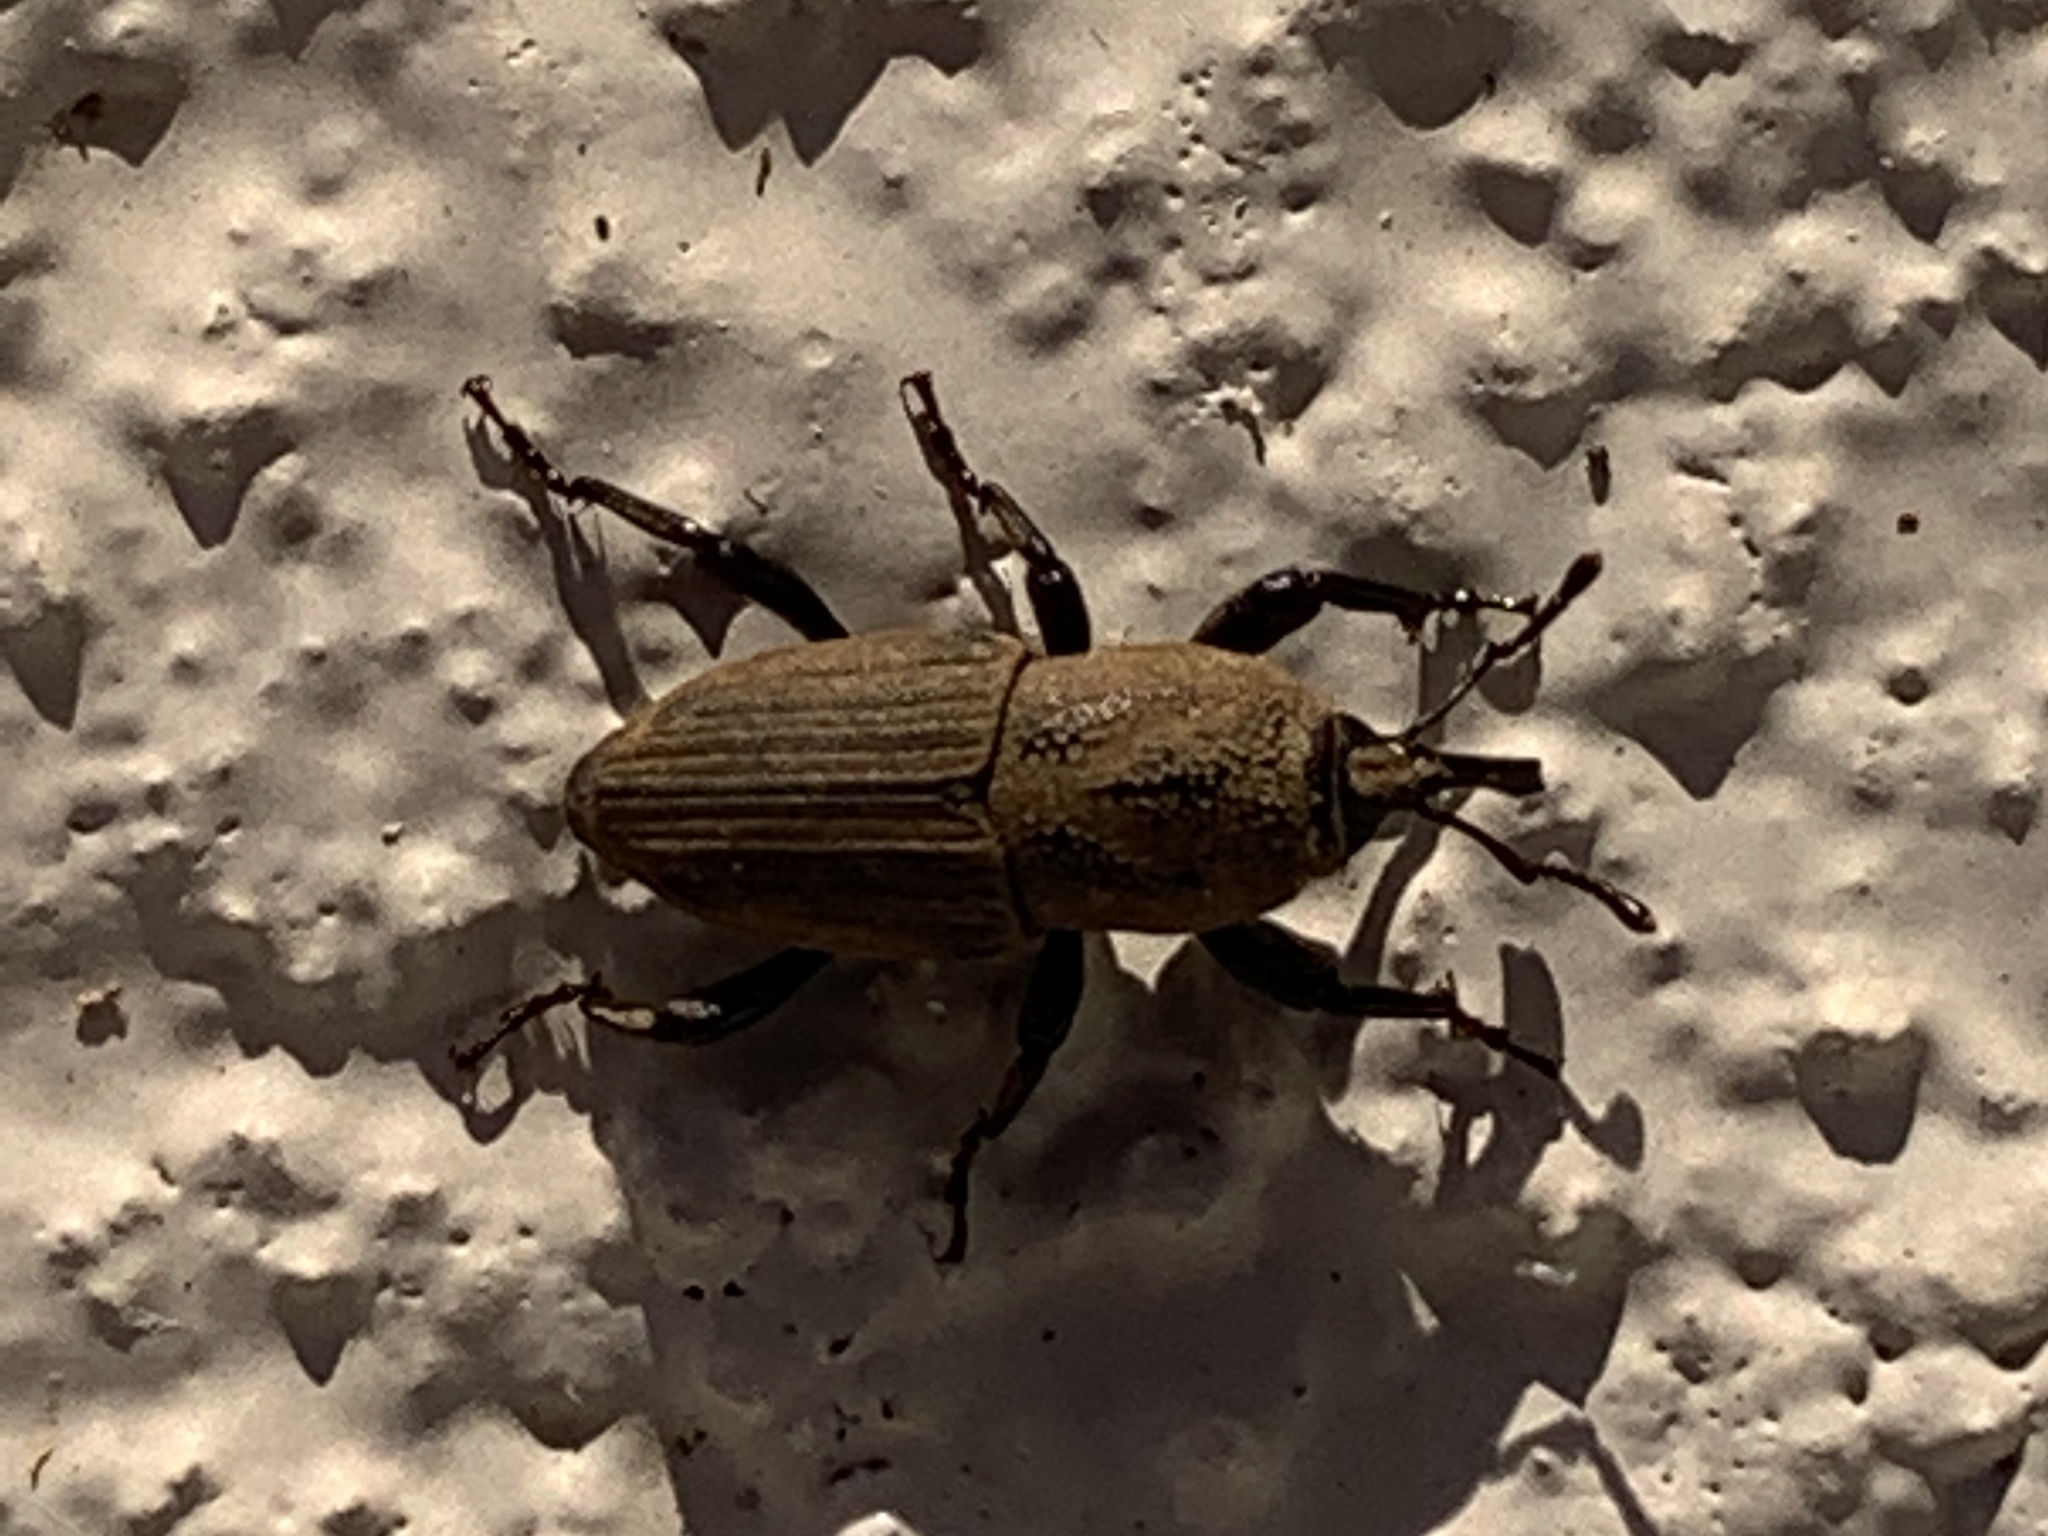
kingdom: Animalia
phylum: Arthropoda
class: Insecta
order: Coleoptera
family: Dryophthoridae
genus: Sphenophorus
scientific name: Sphenophorus coesifrons
